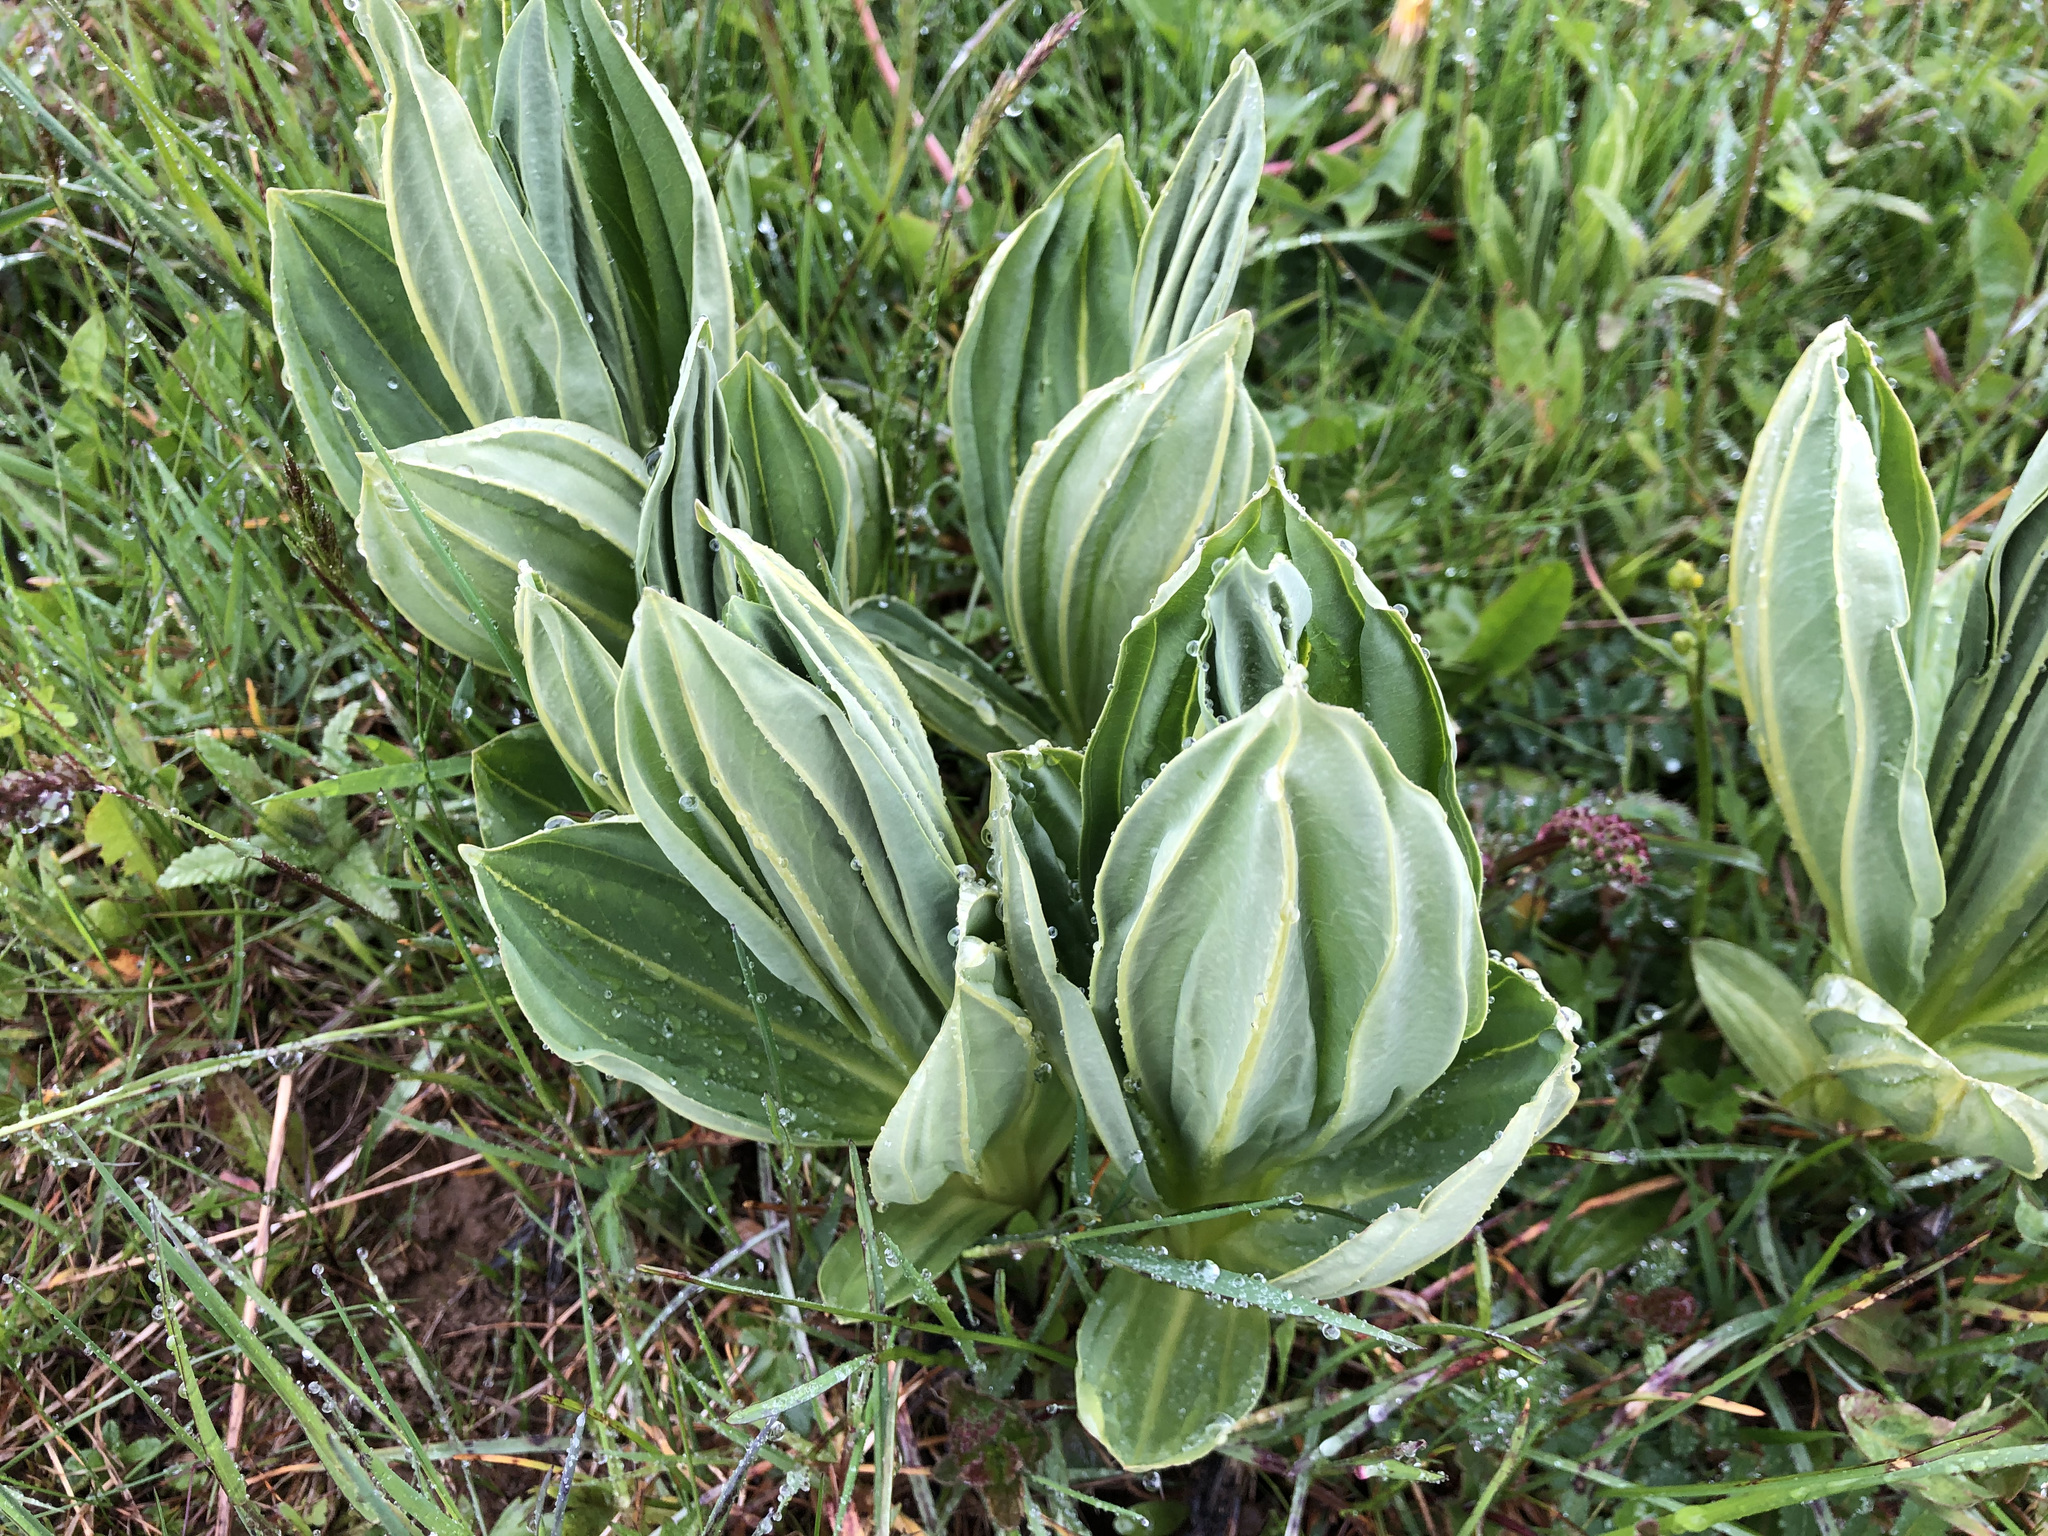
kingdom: Plantae
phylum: Tracheophyta
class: Magnoliopsida
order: Gentianales
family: Gentianaceae
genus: Gentiana
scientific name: Gentiana lutea
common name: Great yellow gentian
